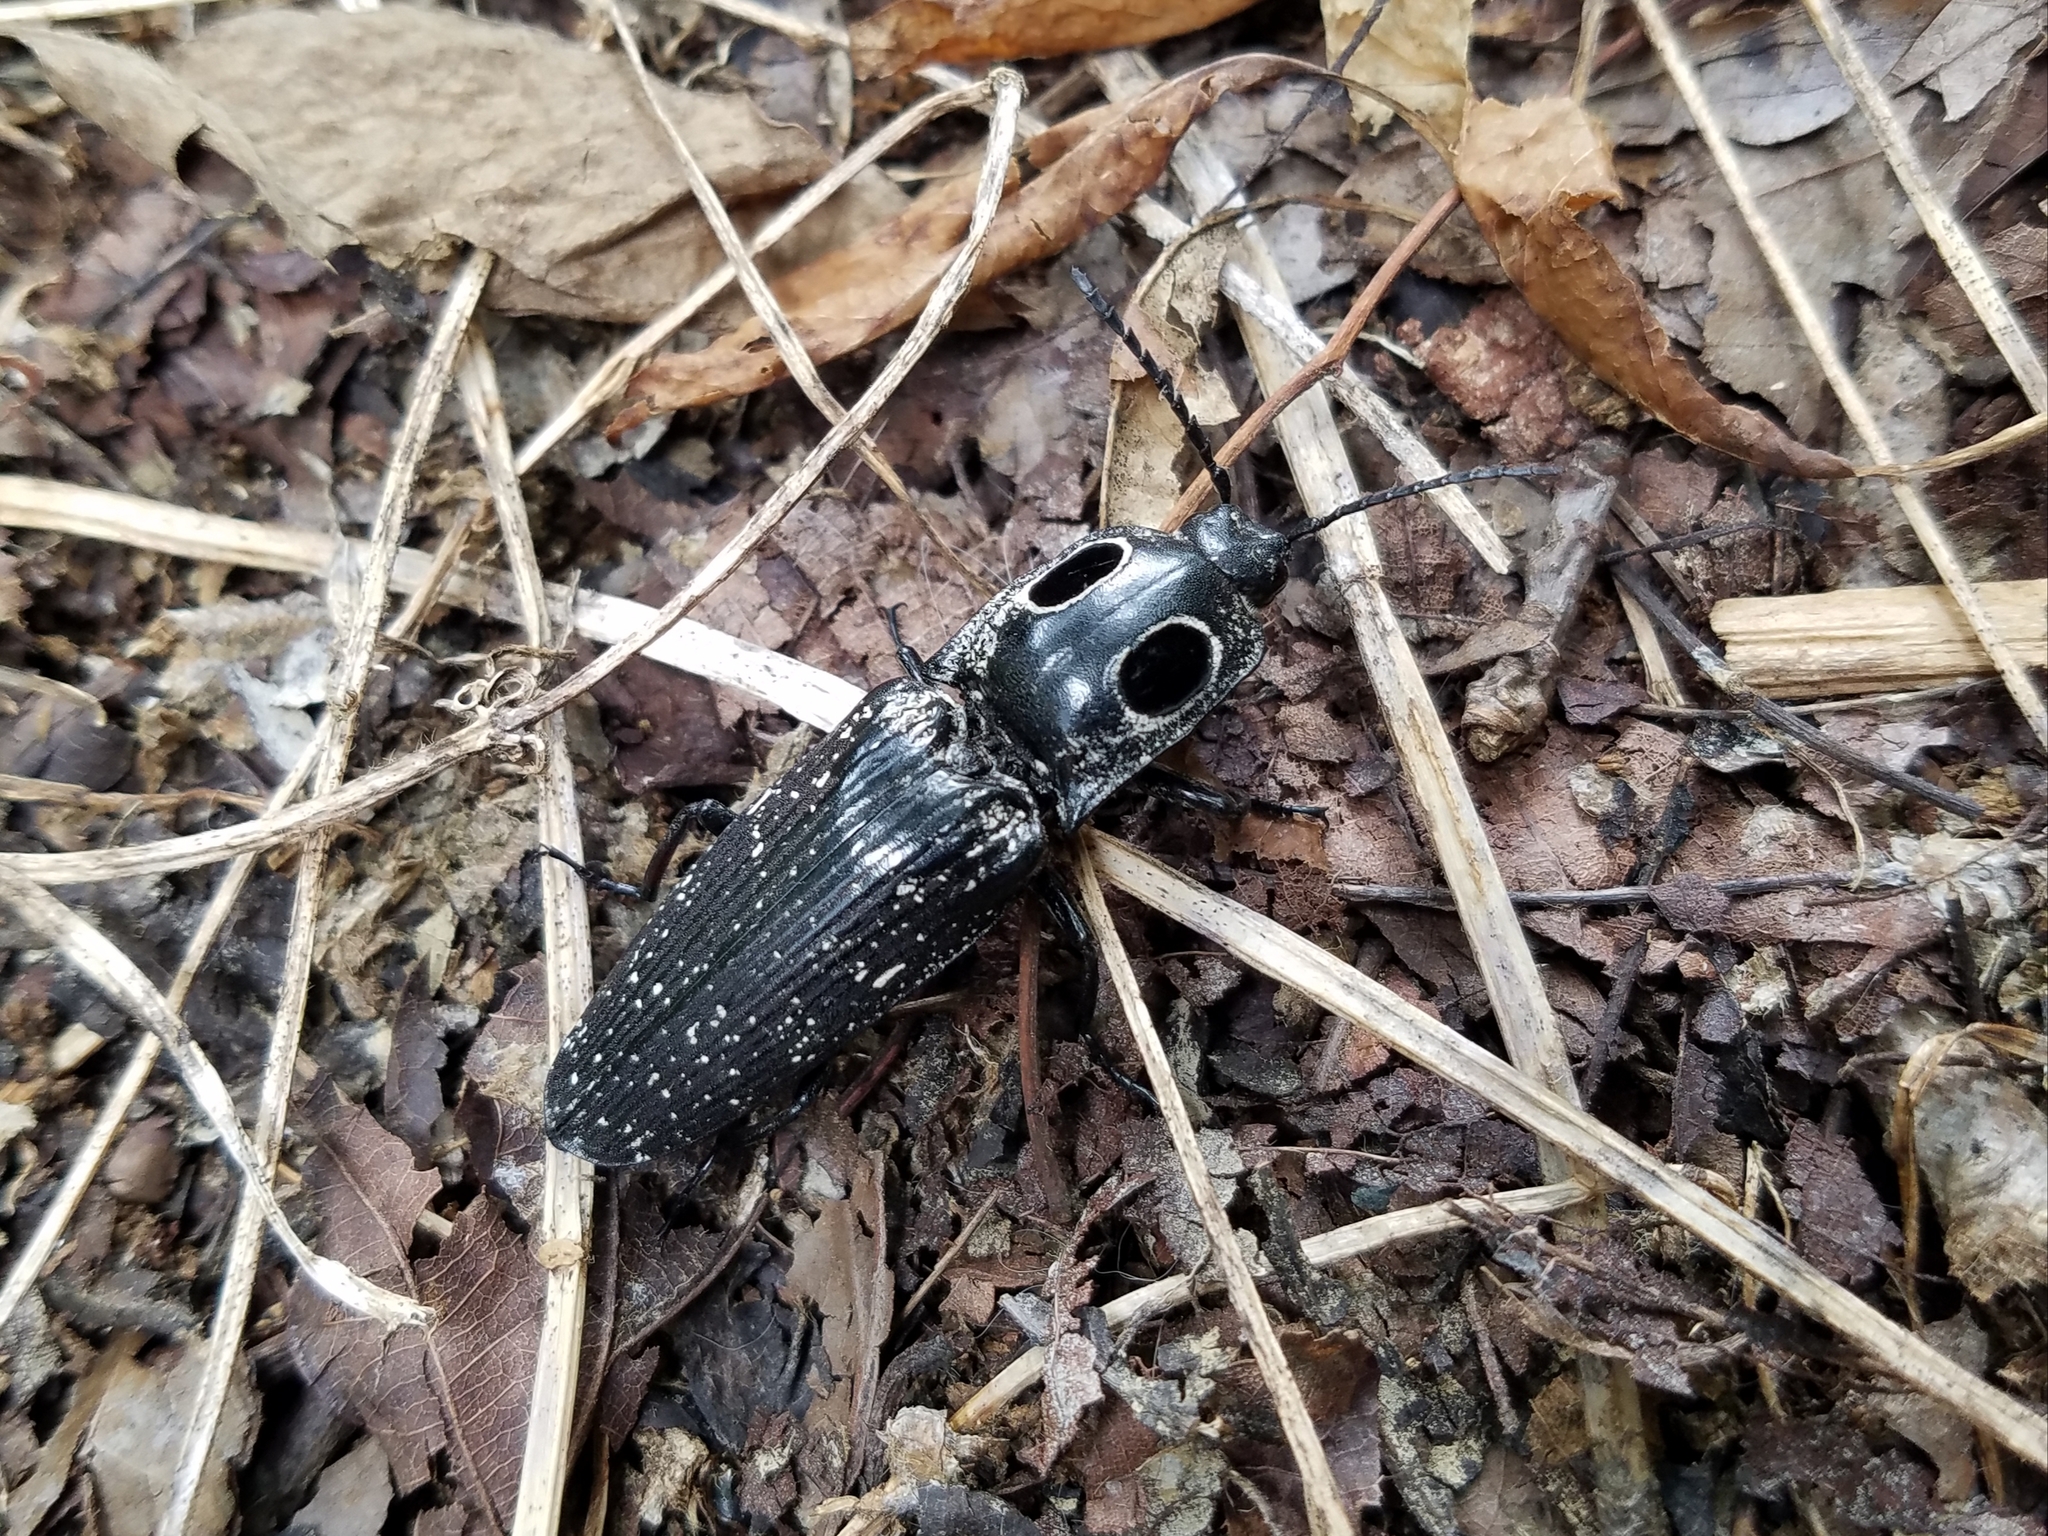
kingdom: Animalia
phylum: Arthropoda
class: Insecta
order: Coleoptera
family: Elateridae
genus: Alaus
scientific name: Alaus oculatus
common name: Eastern eyed click beetle
